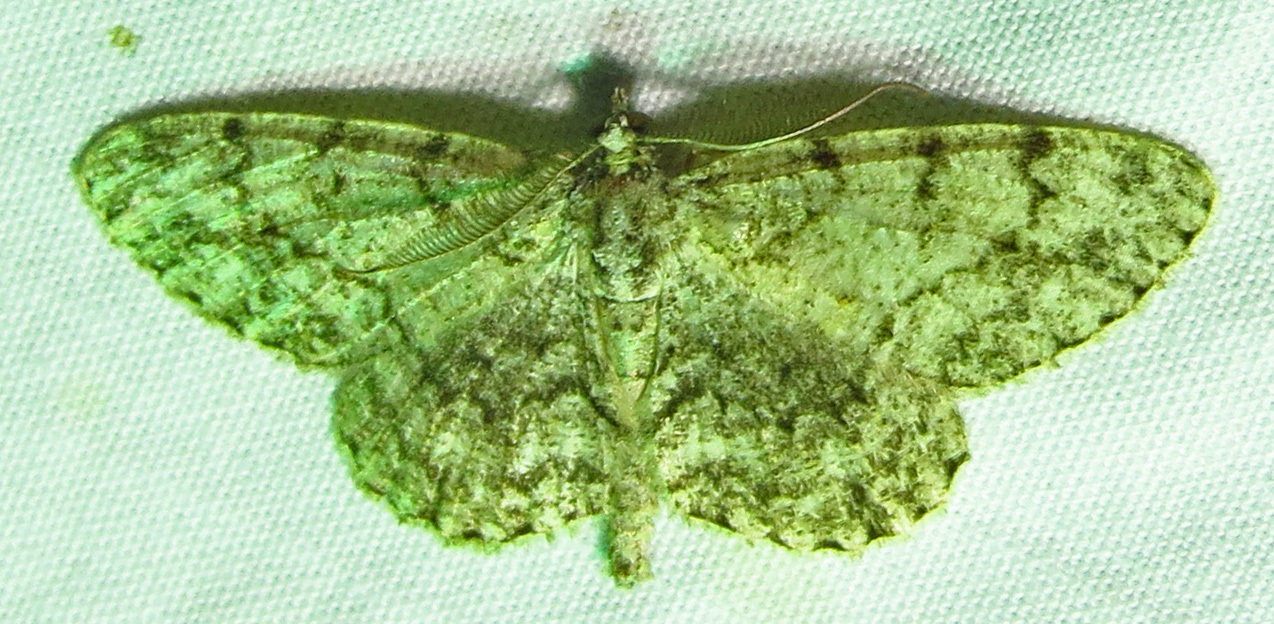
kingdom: Animalia
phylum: Arthropoda
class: Insecta
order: Lepidoptera
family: Geometridae
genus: Protoboarmia
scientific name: Protoboarmia porcelaria
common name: Porcelain gray
